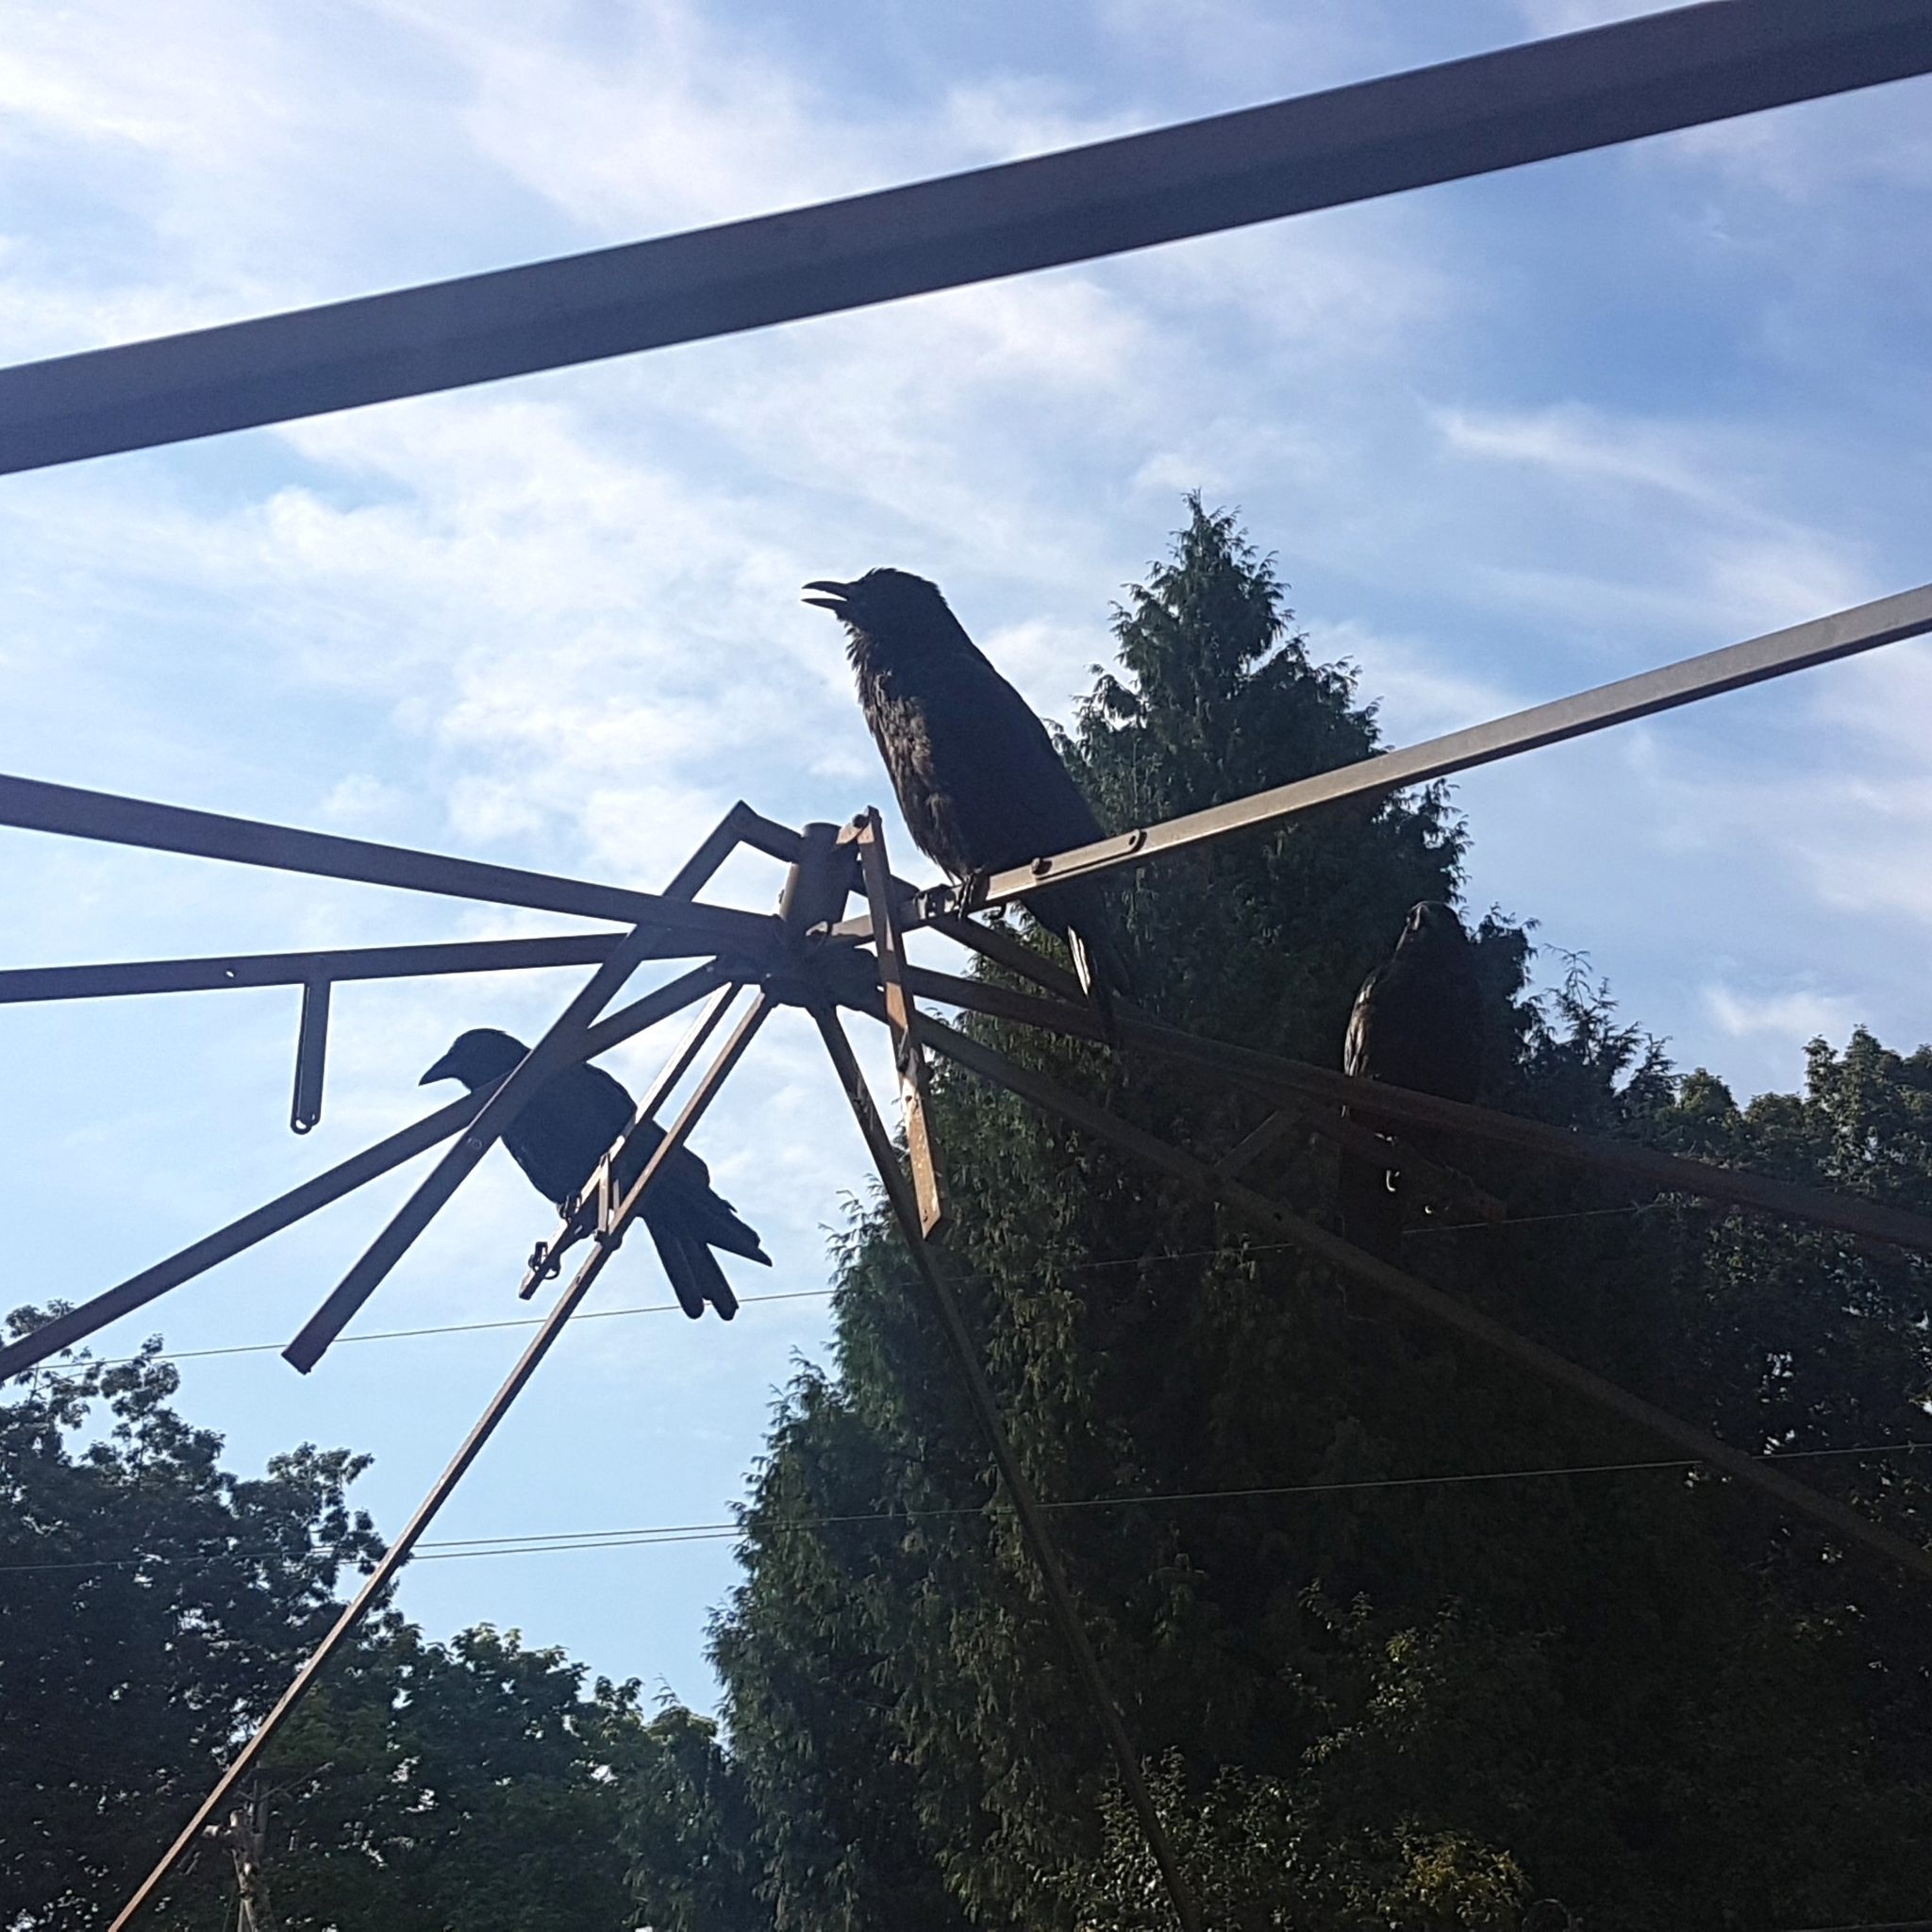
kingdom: Animalia
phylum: Chordata
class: Aves
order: Passeriformes
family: Corvidae
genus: Corvus
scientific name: Corvus brachyrhynchos
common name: American crow
